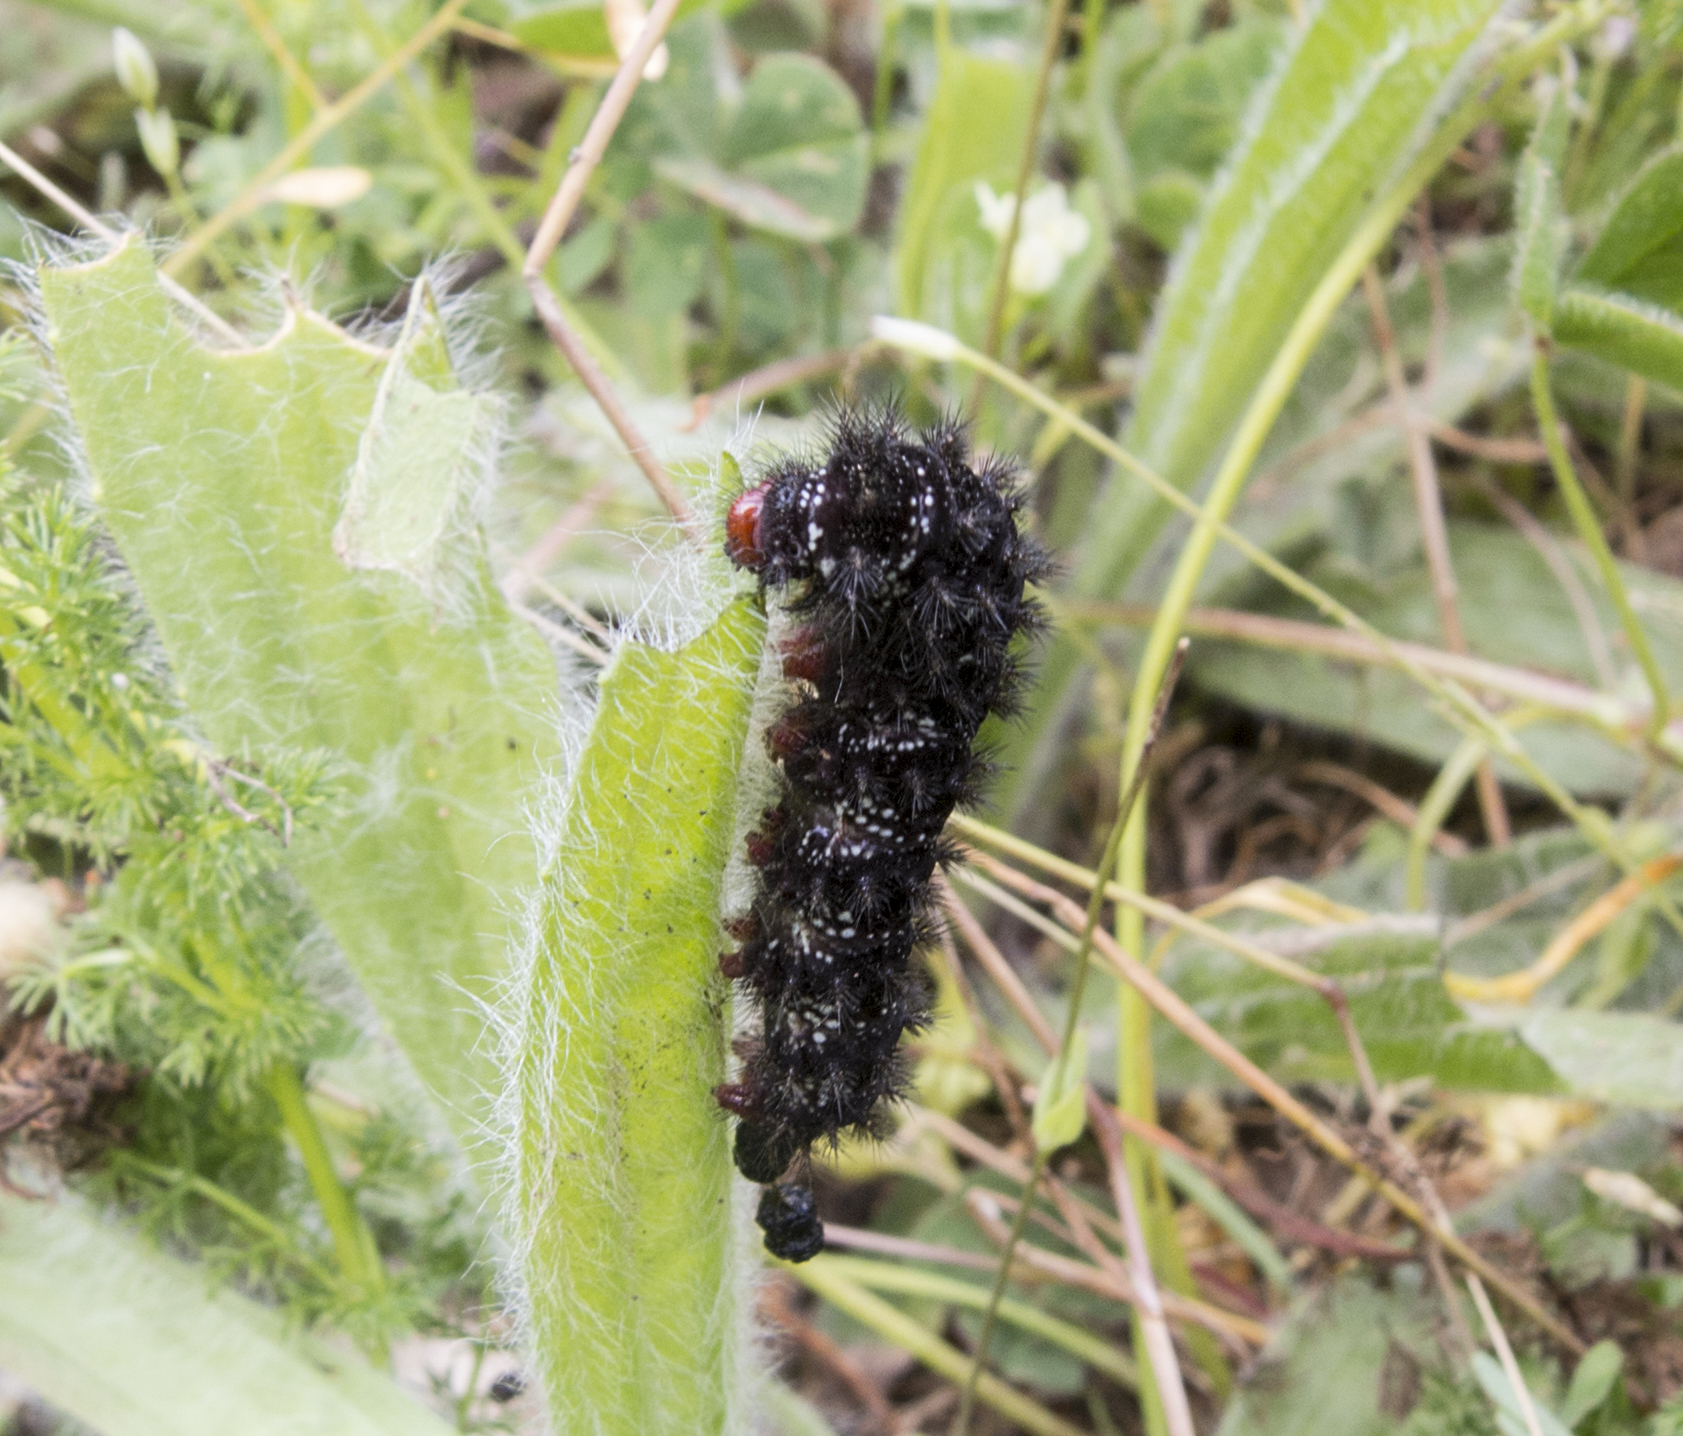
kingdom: Animalia
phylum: Arthropoda
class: Insecta
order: Lepidoptera
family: Nymphalidae
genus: Melitaea
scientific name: Melitaea cinxia
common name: Glanville fritillary
